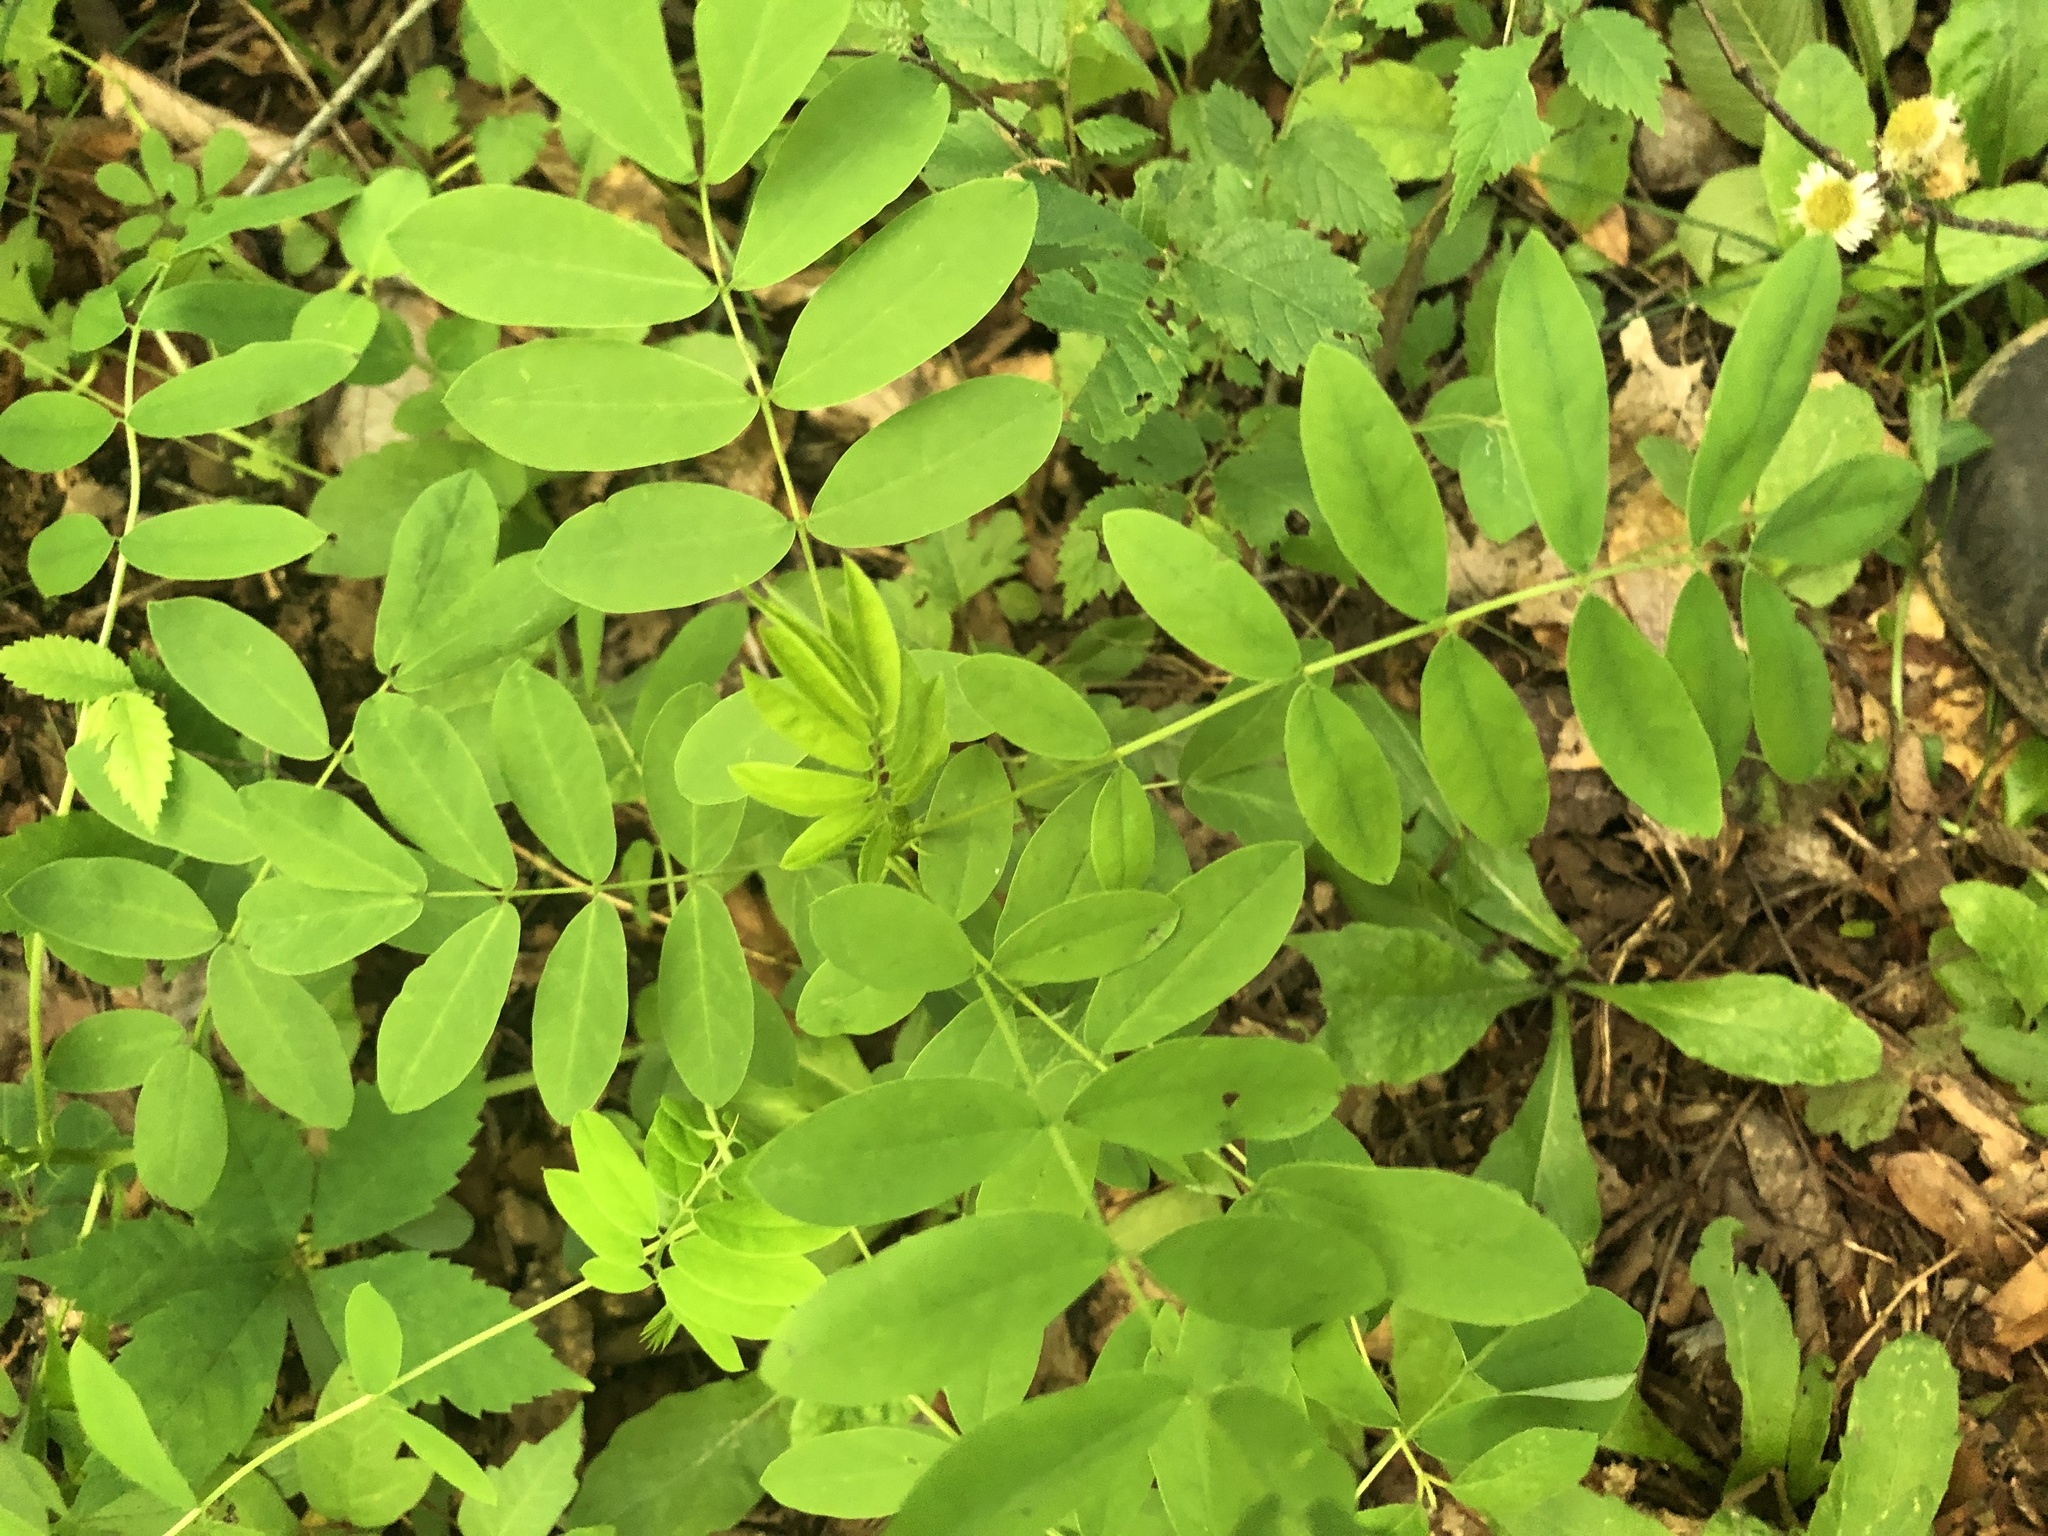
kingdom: Plantae
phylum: Tracheophyta
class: Magnoliopsida
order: Fabales
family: Fabaceae
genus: Senna
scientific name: Senna marilandica
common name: American senna
